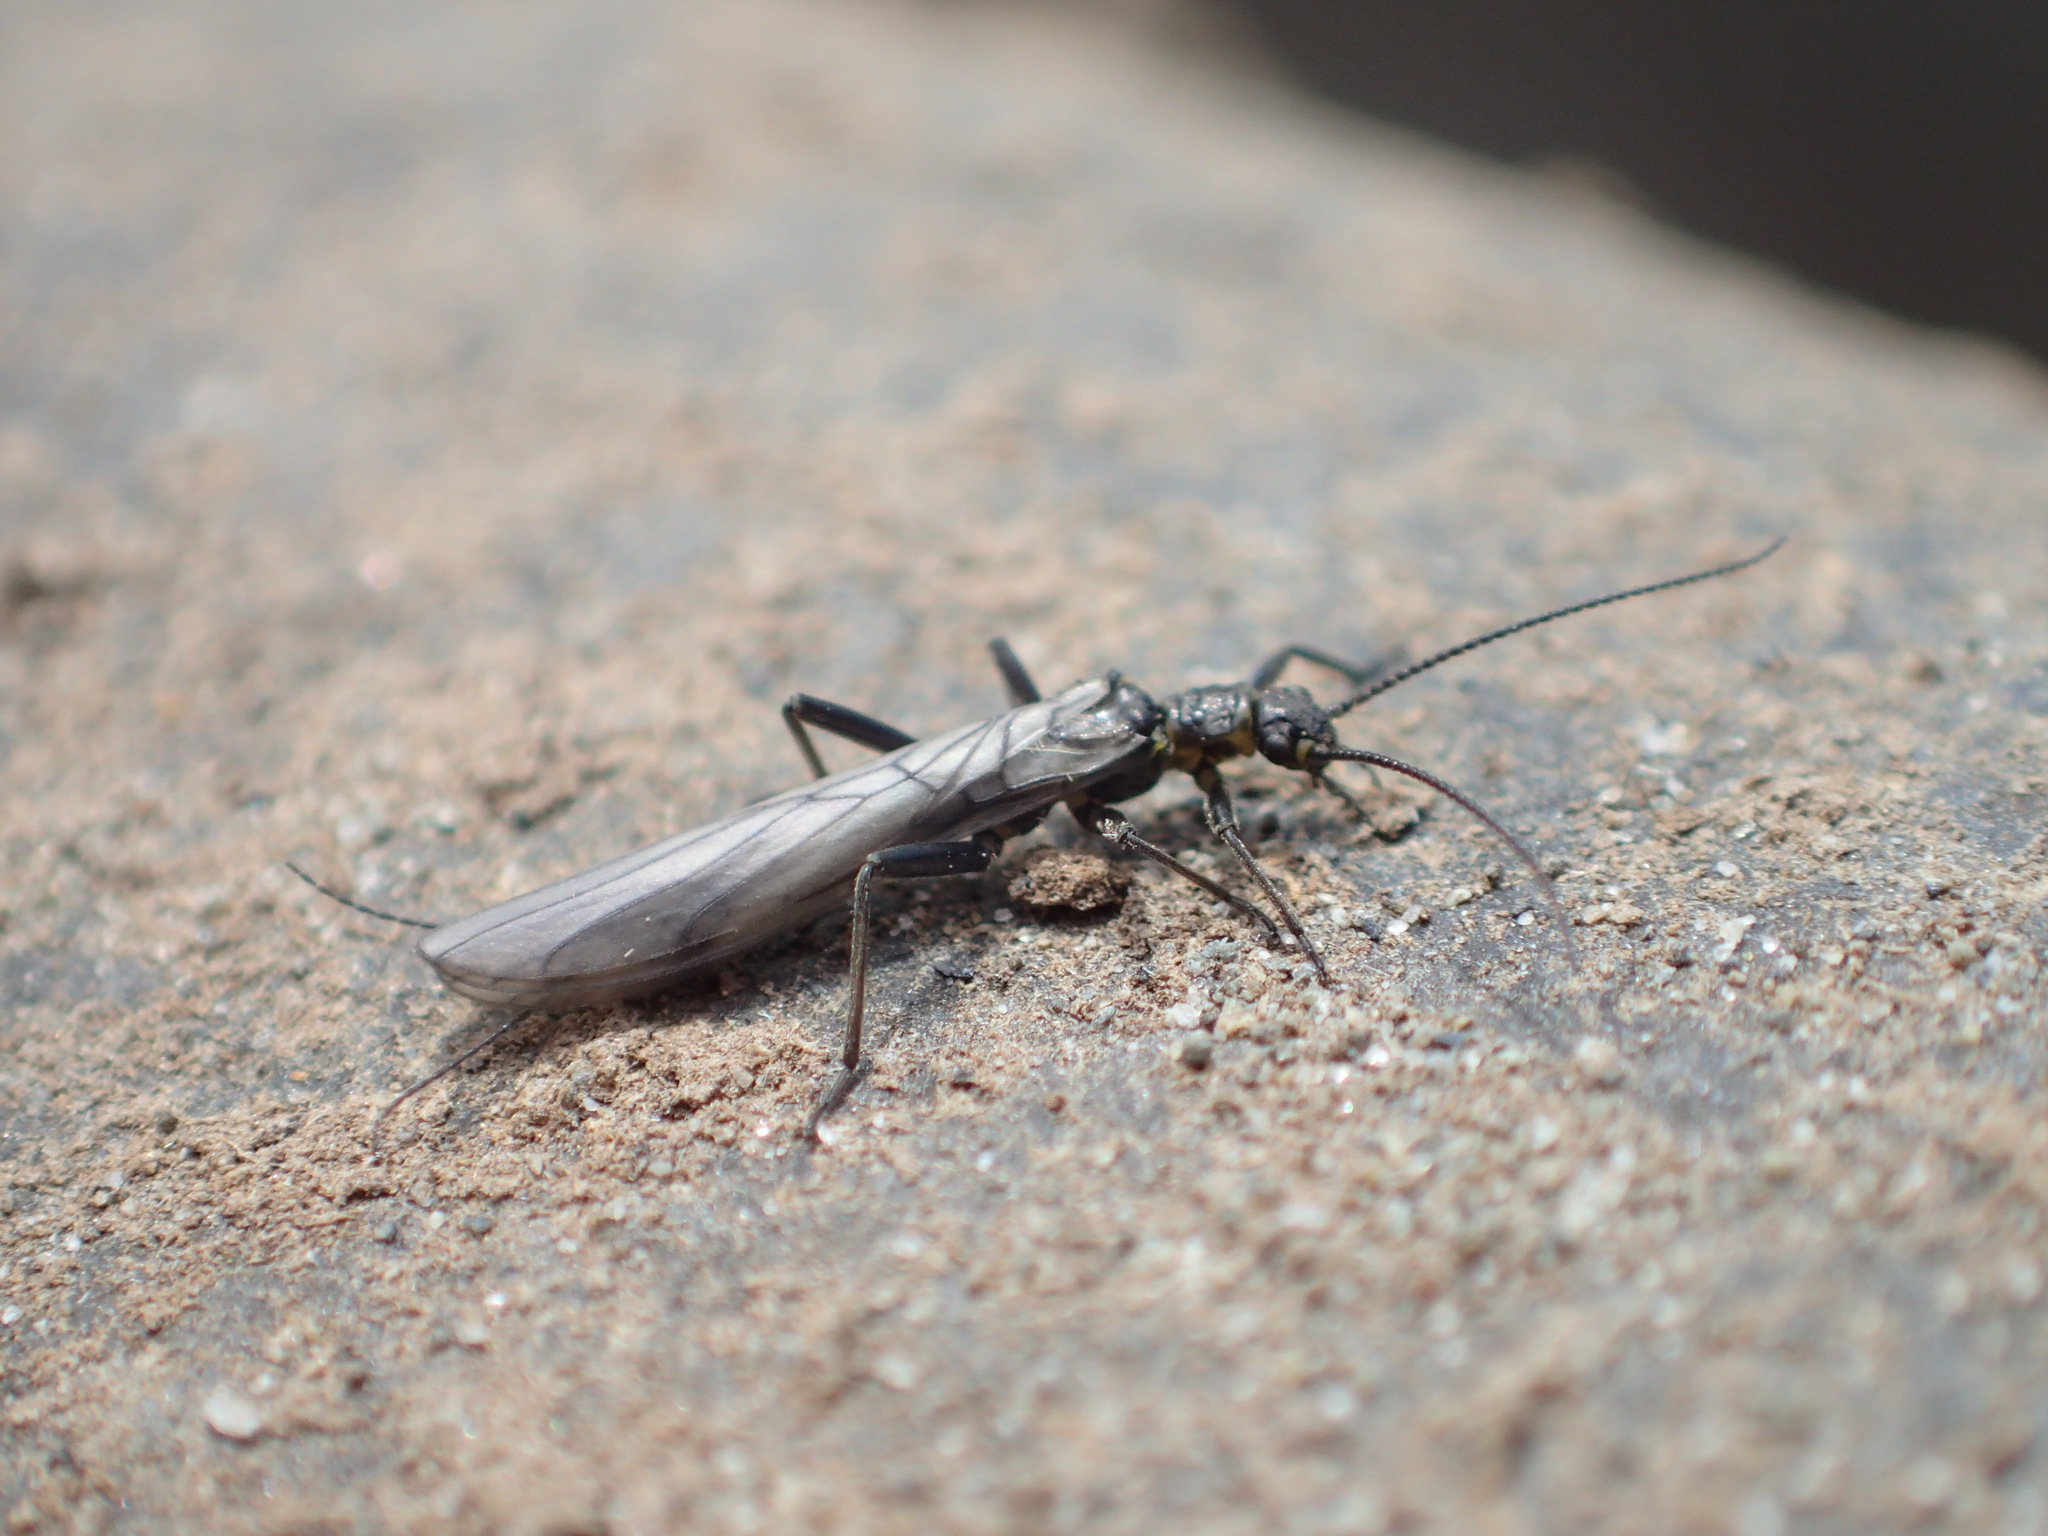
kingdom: Animalia
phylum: Arthropoda
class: Insecta
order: Plecoptera
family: Capniidae
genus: Utacapnia
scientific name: Utacapnia columbiana
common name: Columbian snowfly
